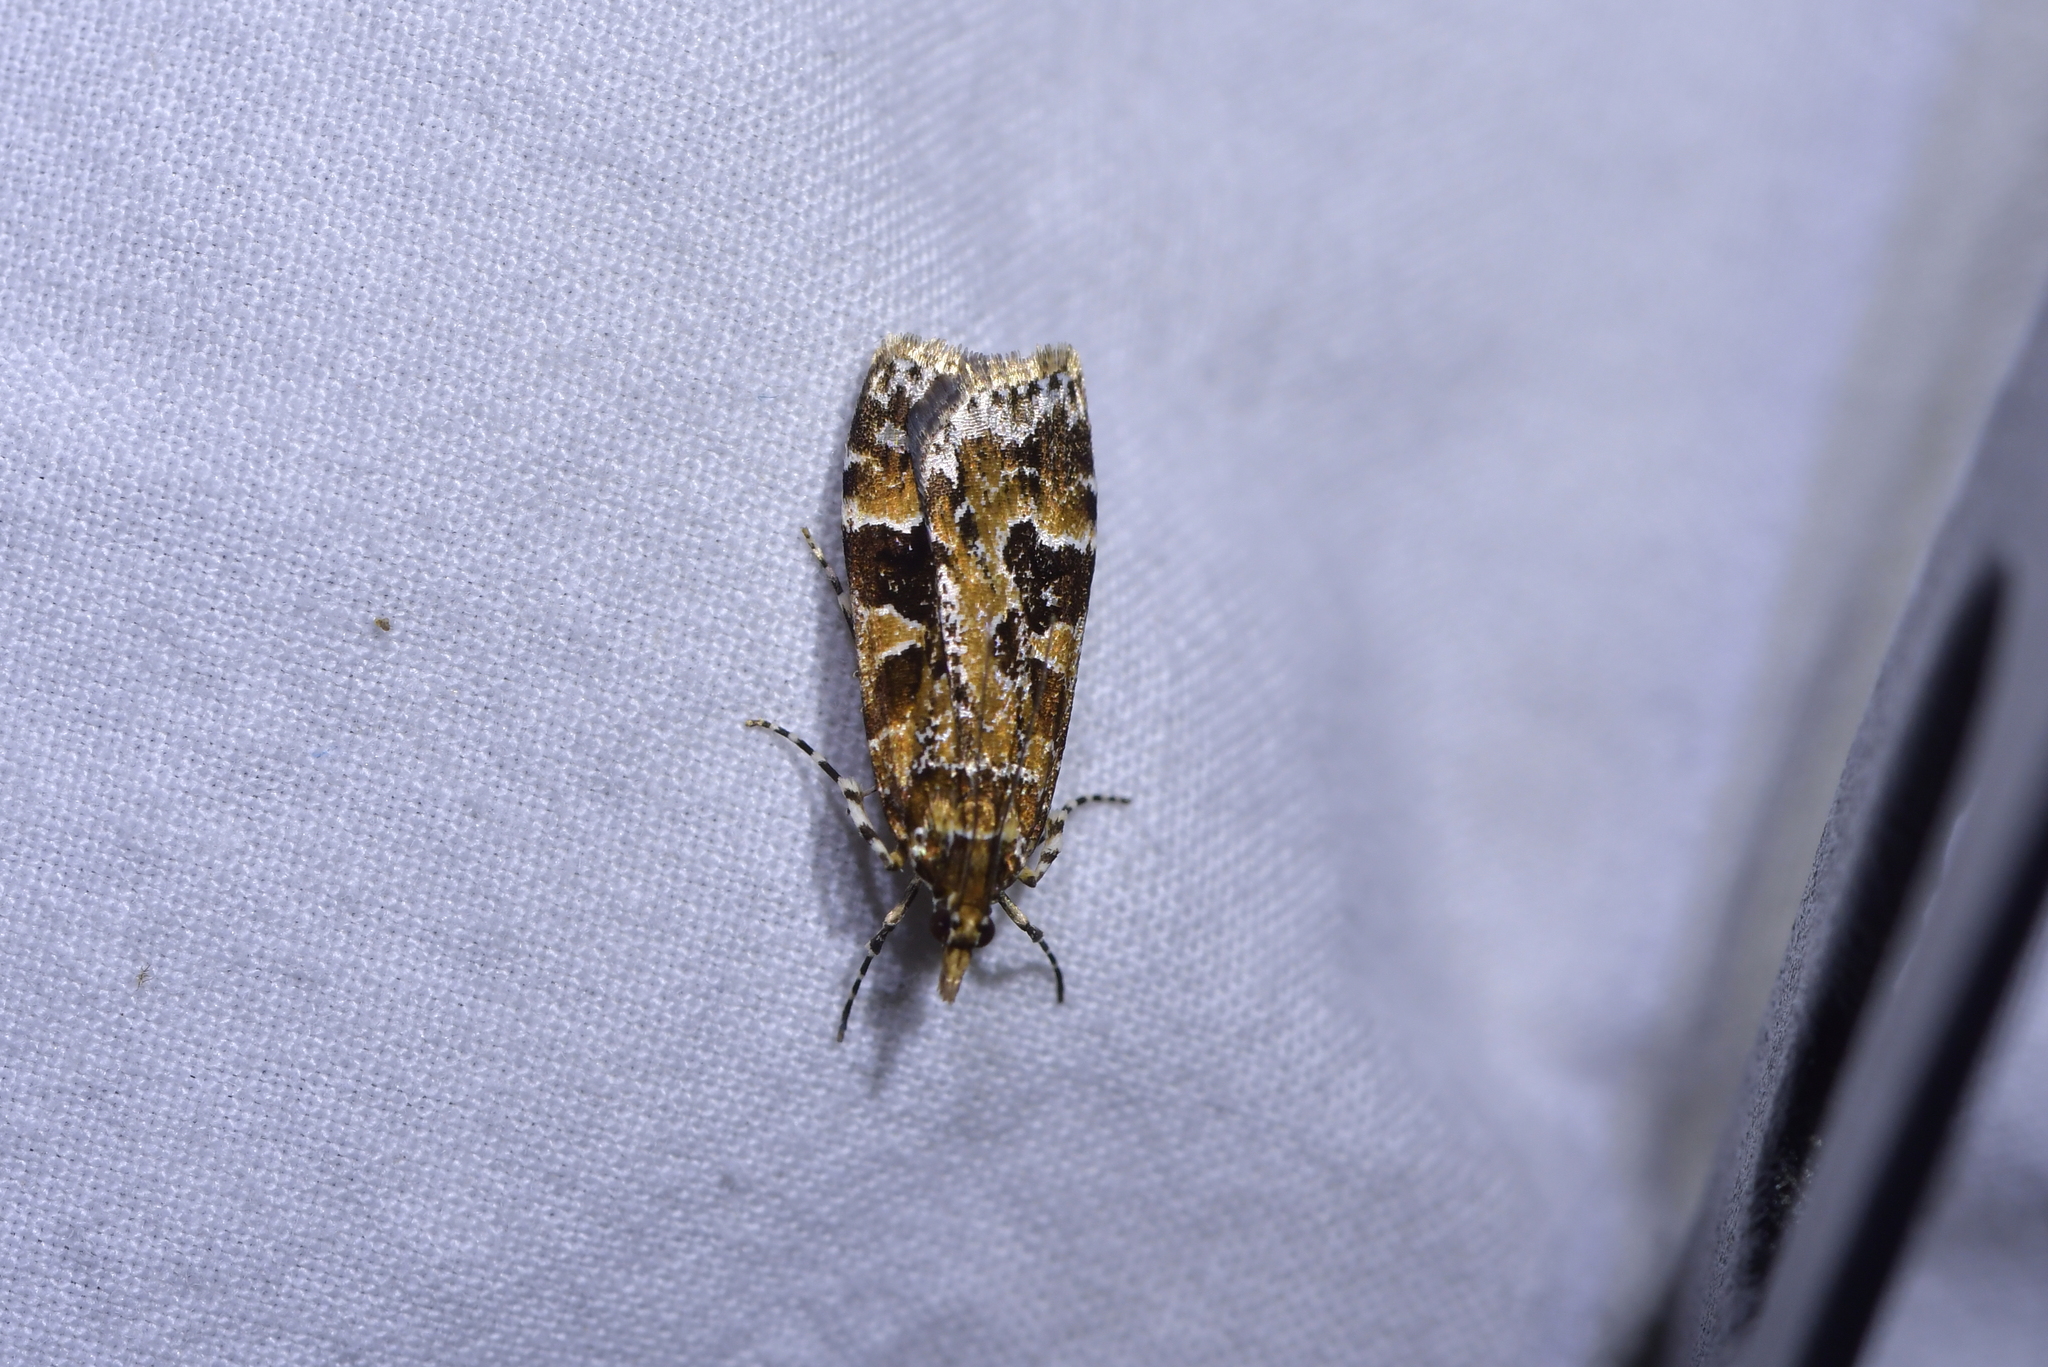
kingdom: Animalia
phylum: Arthropoda
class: Insecta
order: Lepidoptera
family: Crambidae
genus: Scoparia
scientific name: Scoparia ustimacula
